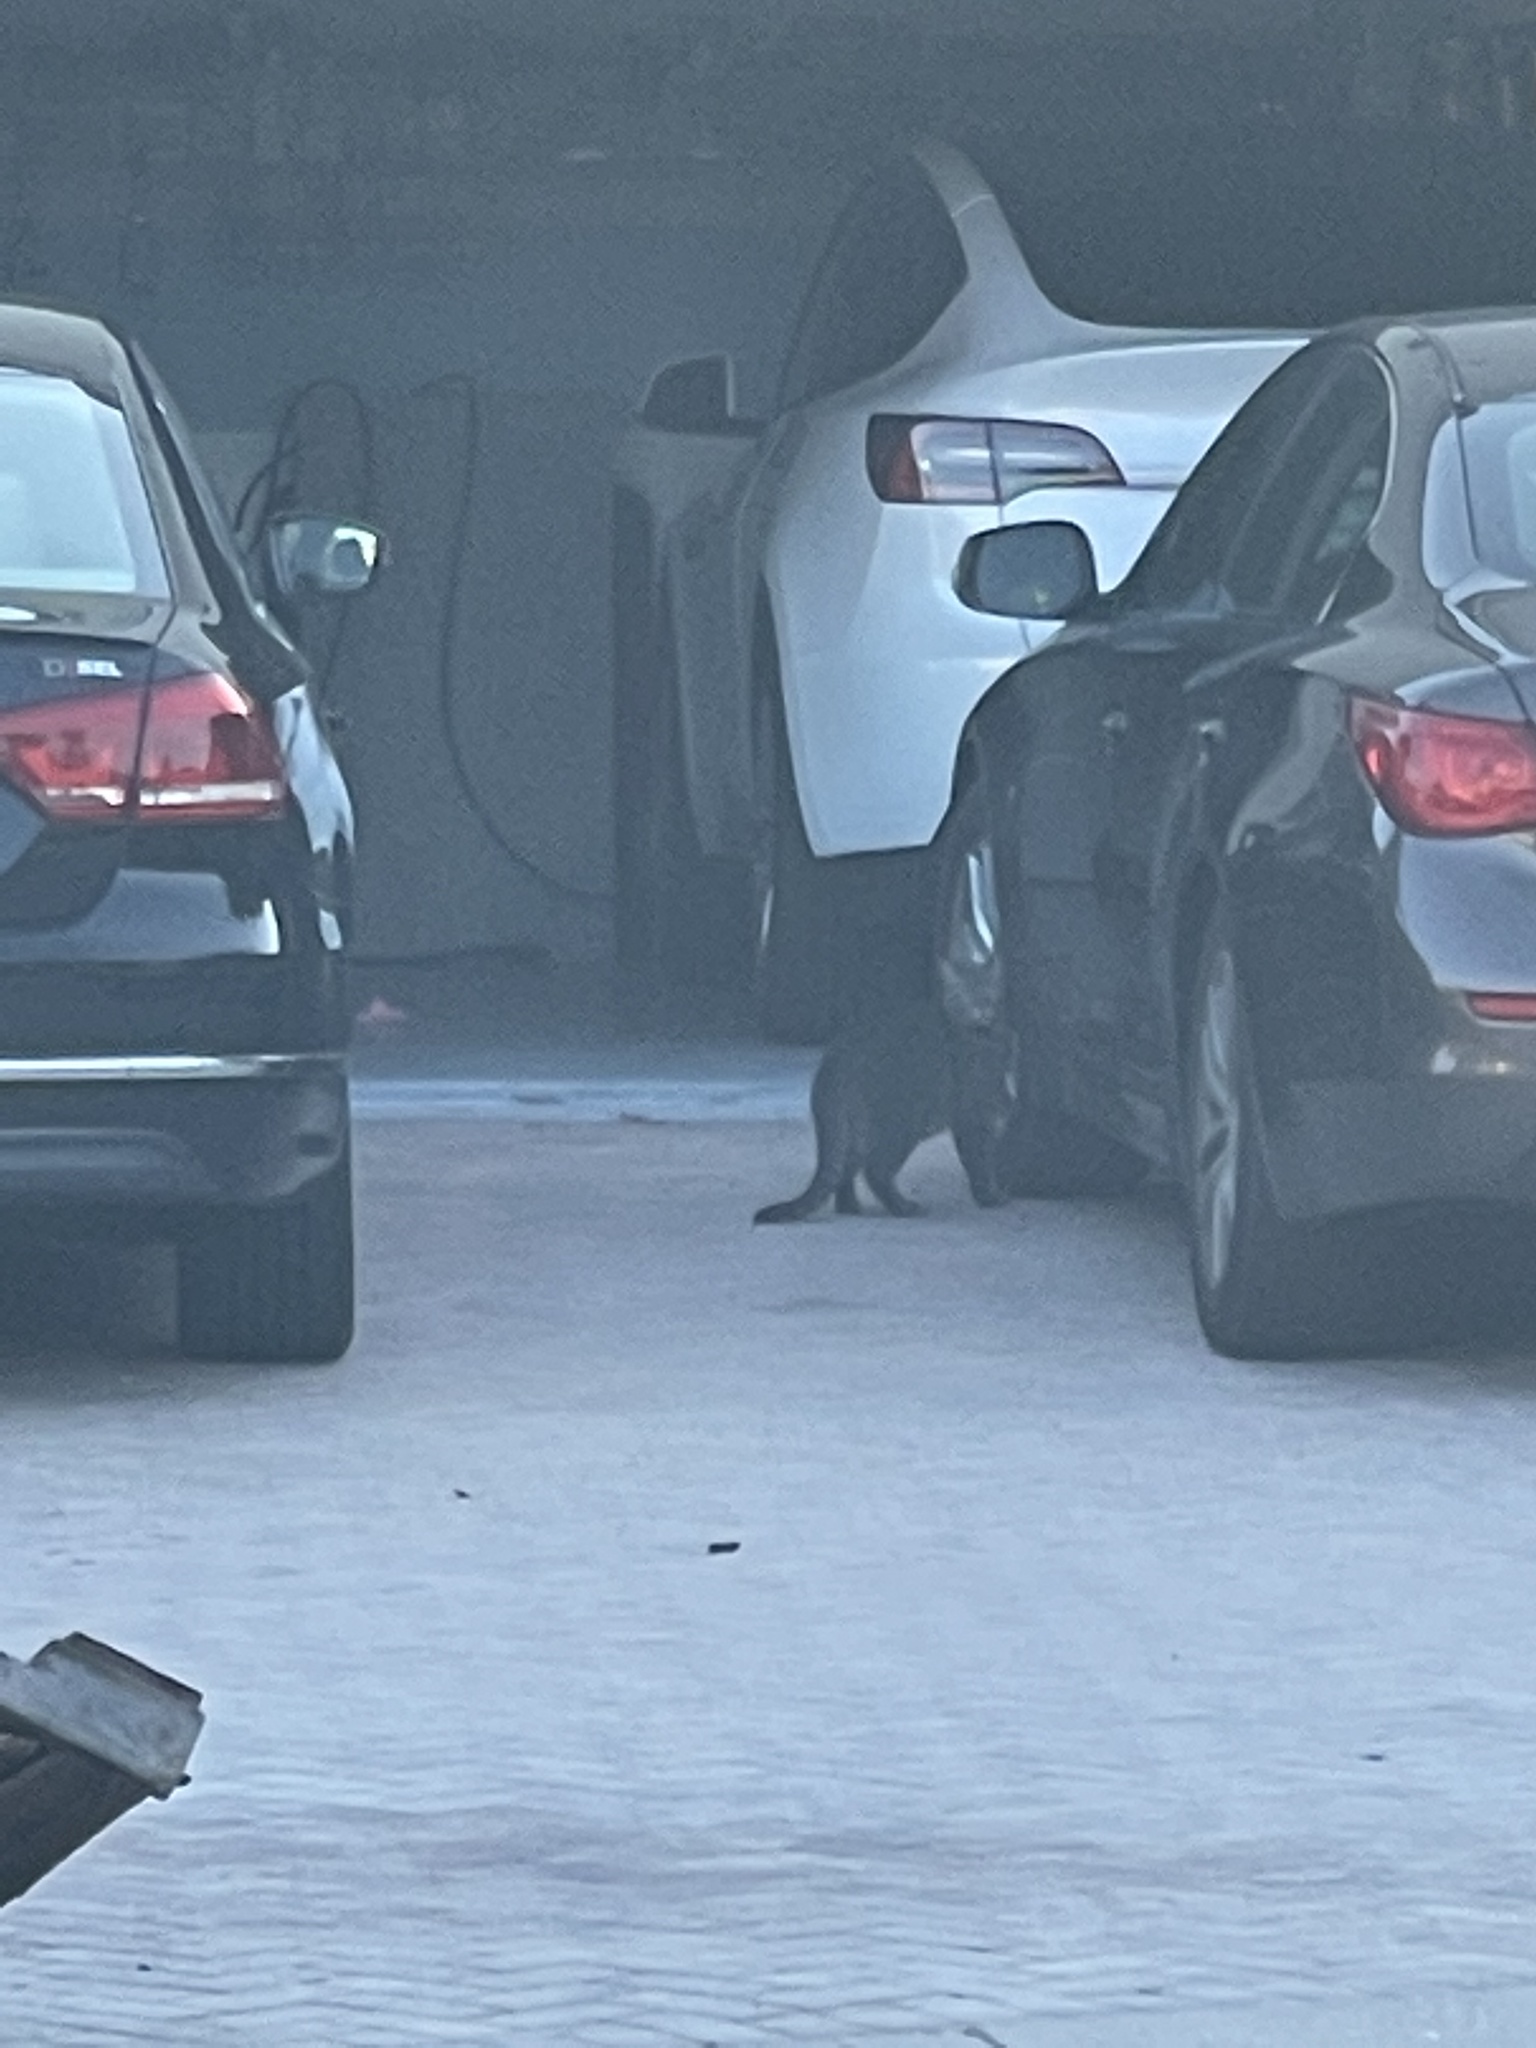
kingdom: Animalia
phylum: Chordata
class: Mammalia
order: Carnivora
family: Felidae
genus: Felis
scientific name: Felis catus
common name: Domestic cat
